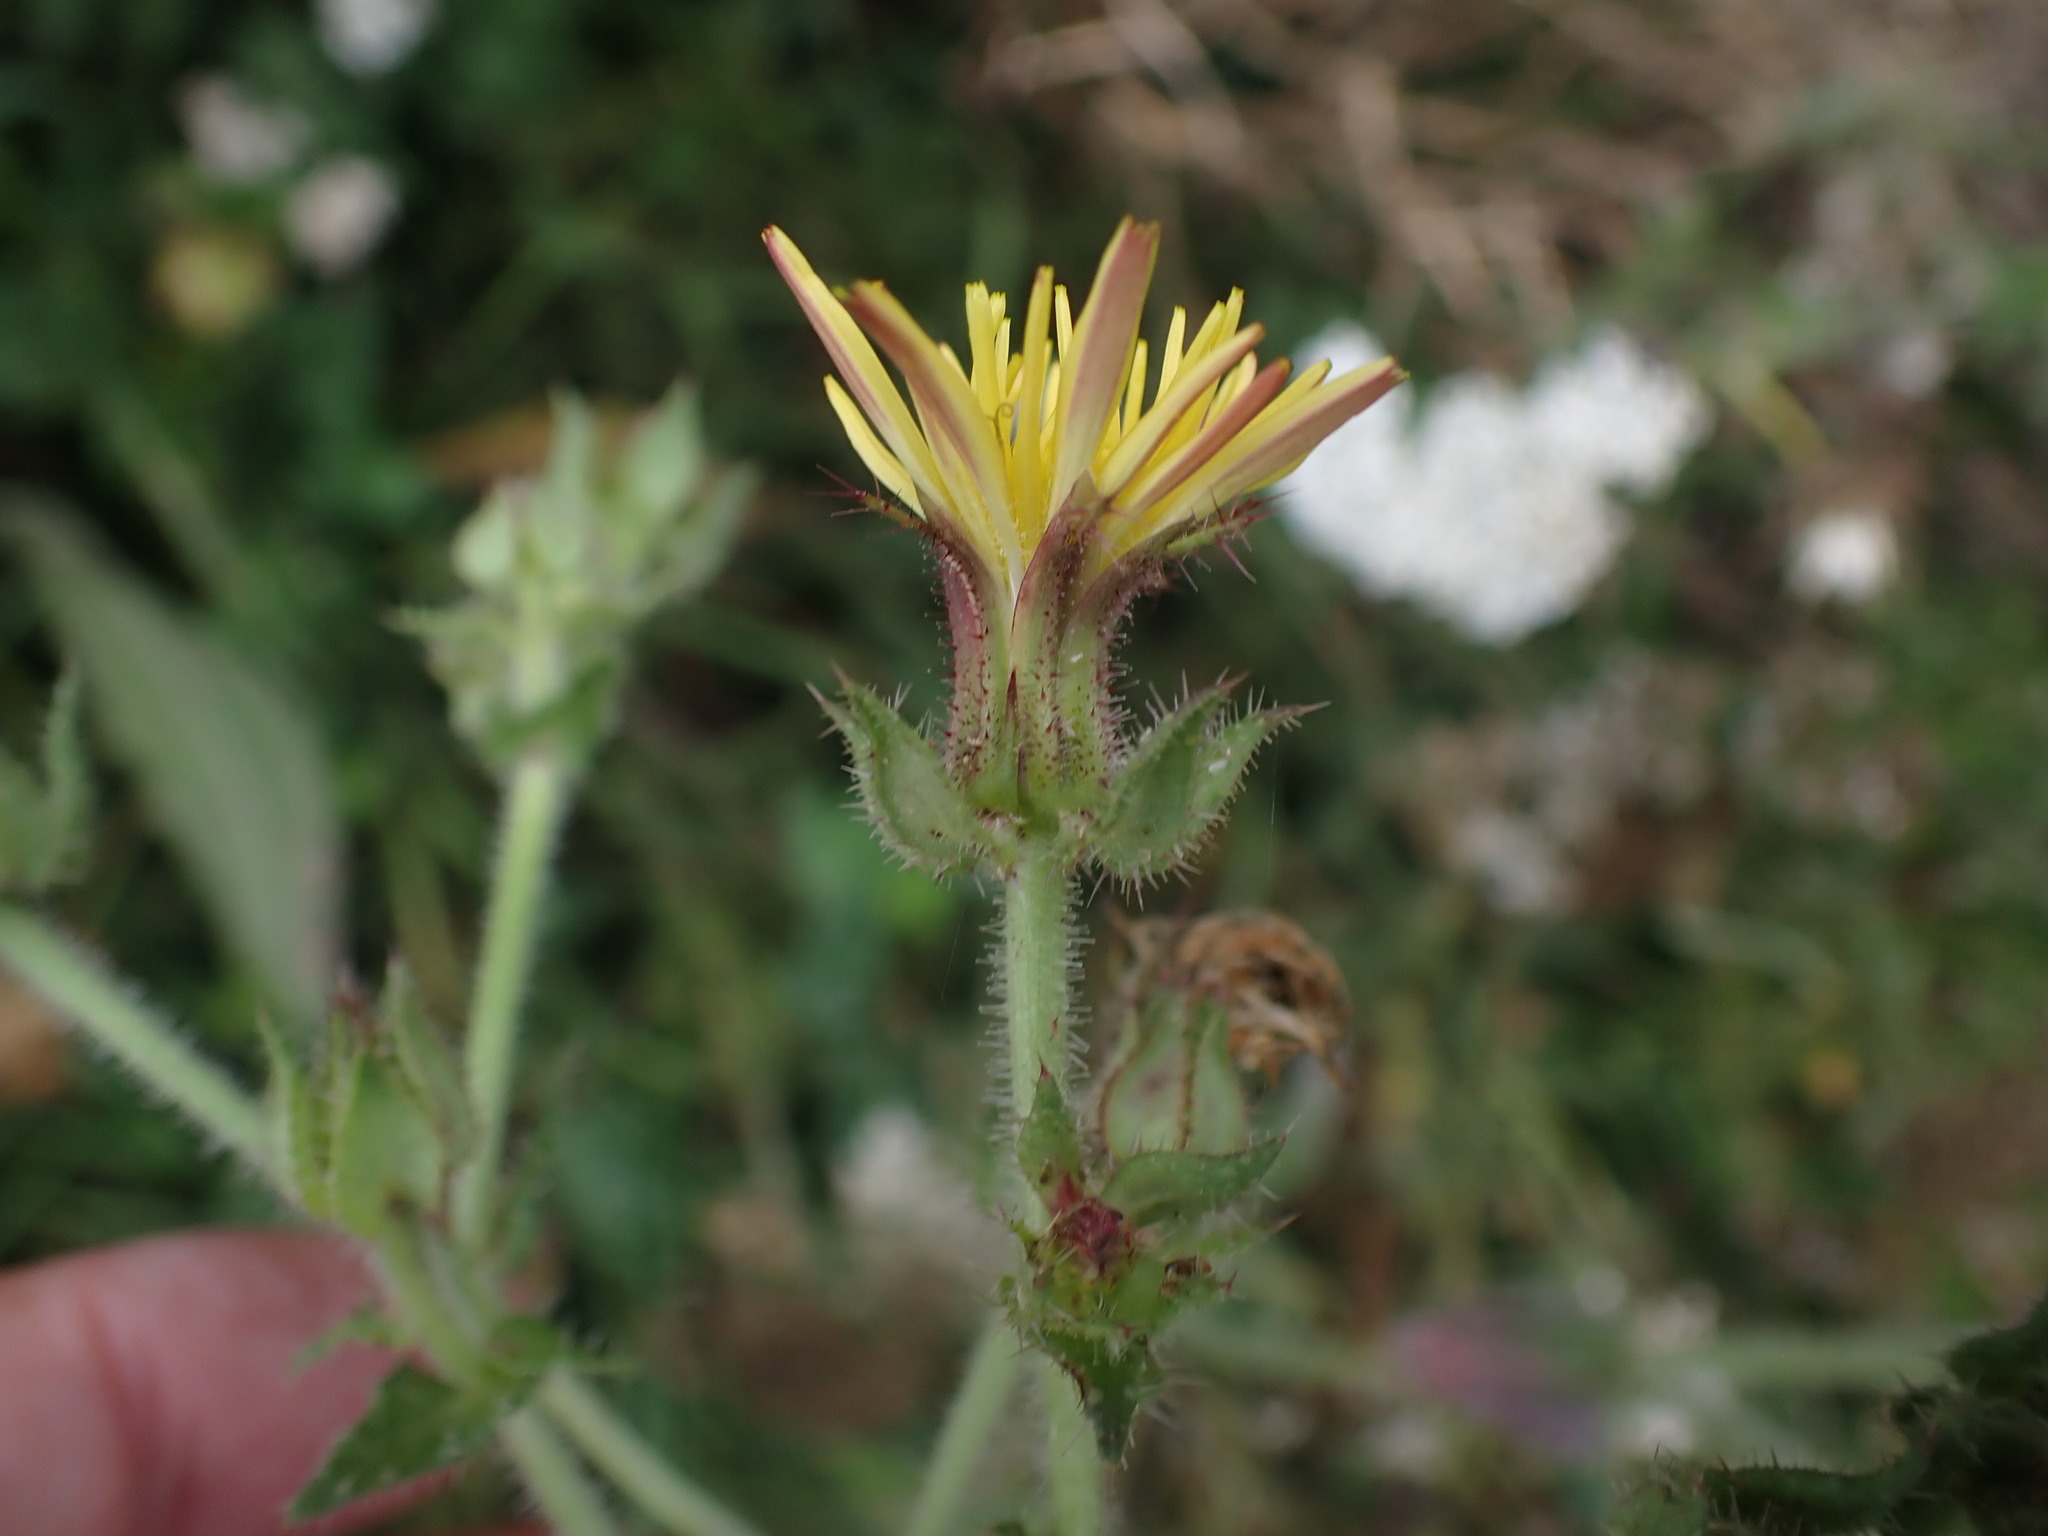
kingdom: Plantae
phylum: Tracheophyta
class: Magnoliopsida
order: Asterales
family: Asteraceae
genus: Helminthotheca
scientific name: Helminthotheca echioides
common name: Ox-tongue
